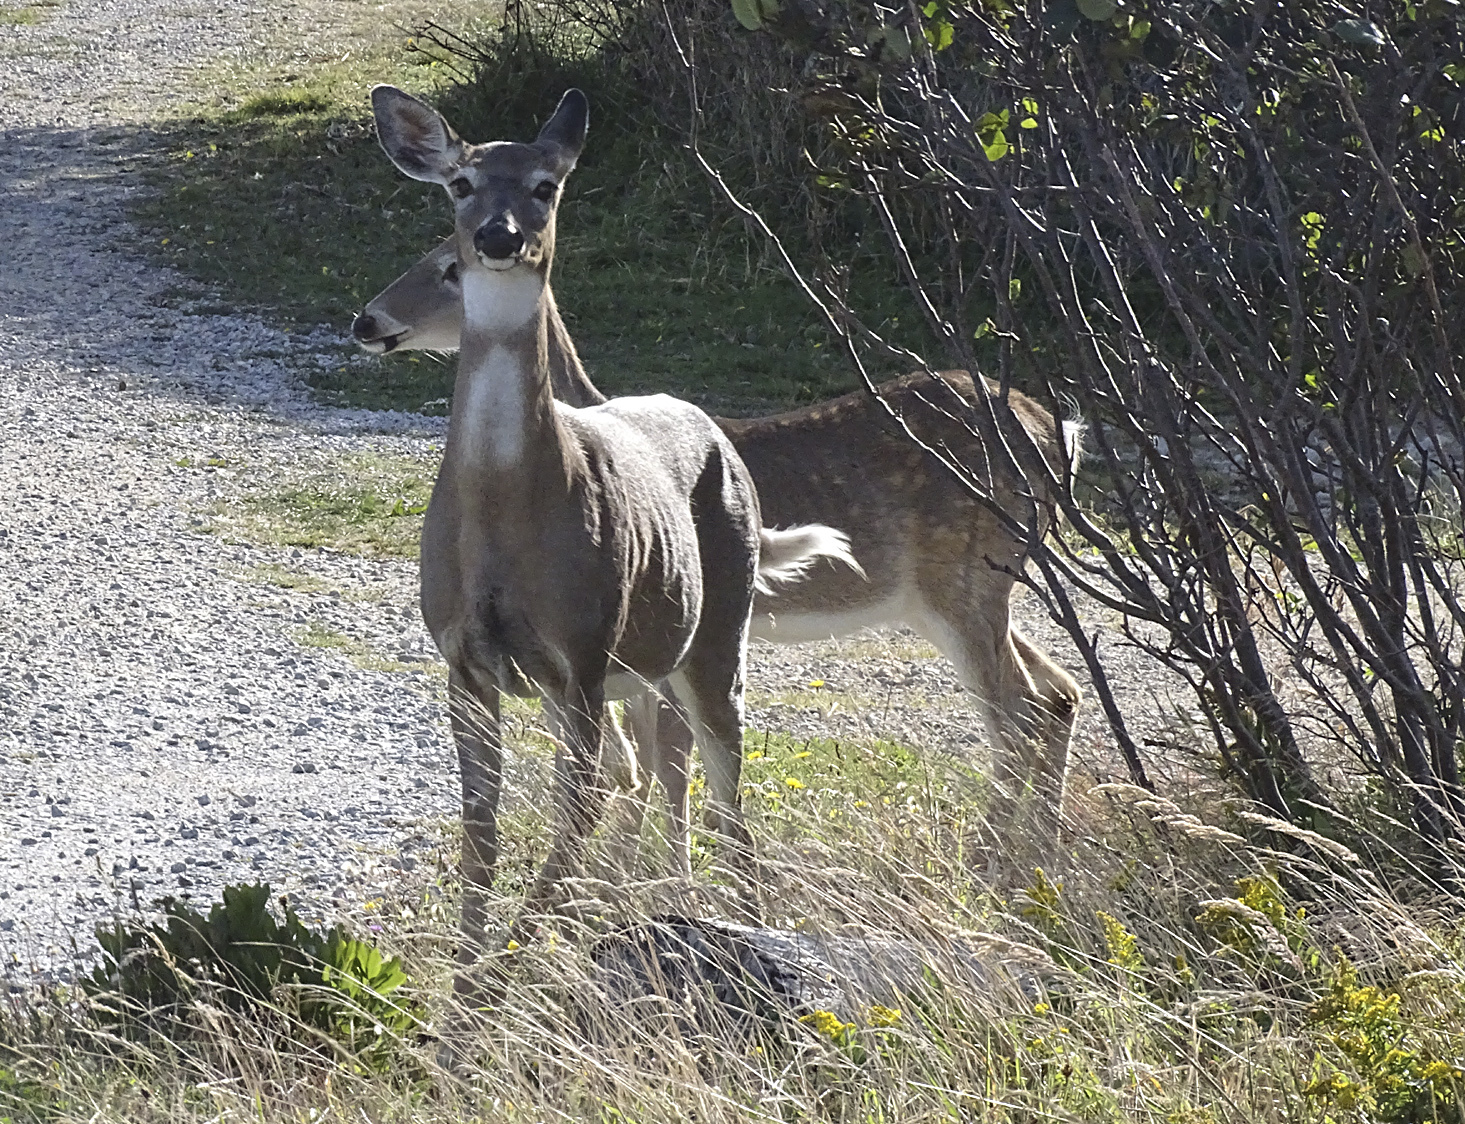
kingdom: Animalia
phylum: Chordata
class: Mammalia
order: Artiodactyla
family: Cervidae
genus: Odocoileus
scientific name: Odocoileus virginianus
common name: White-tailed deer
